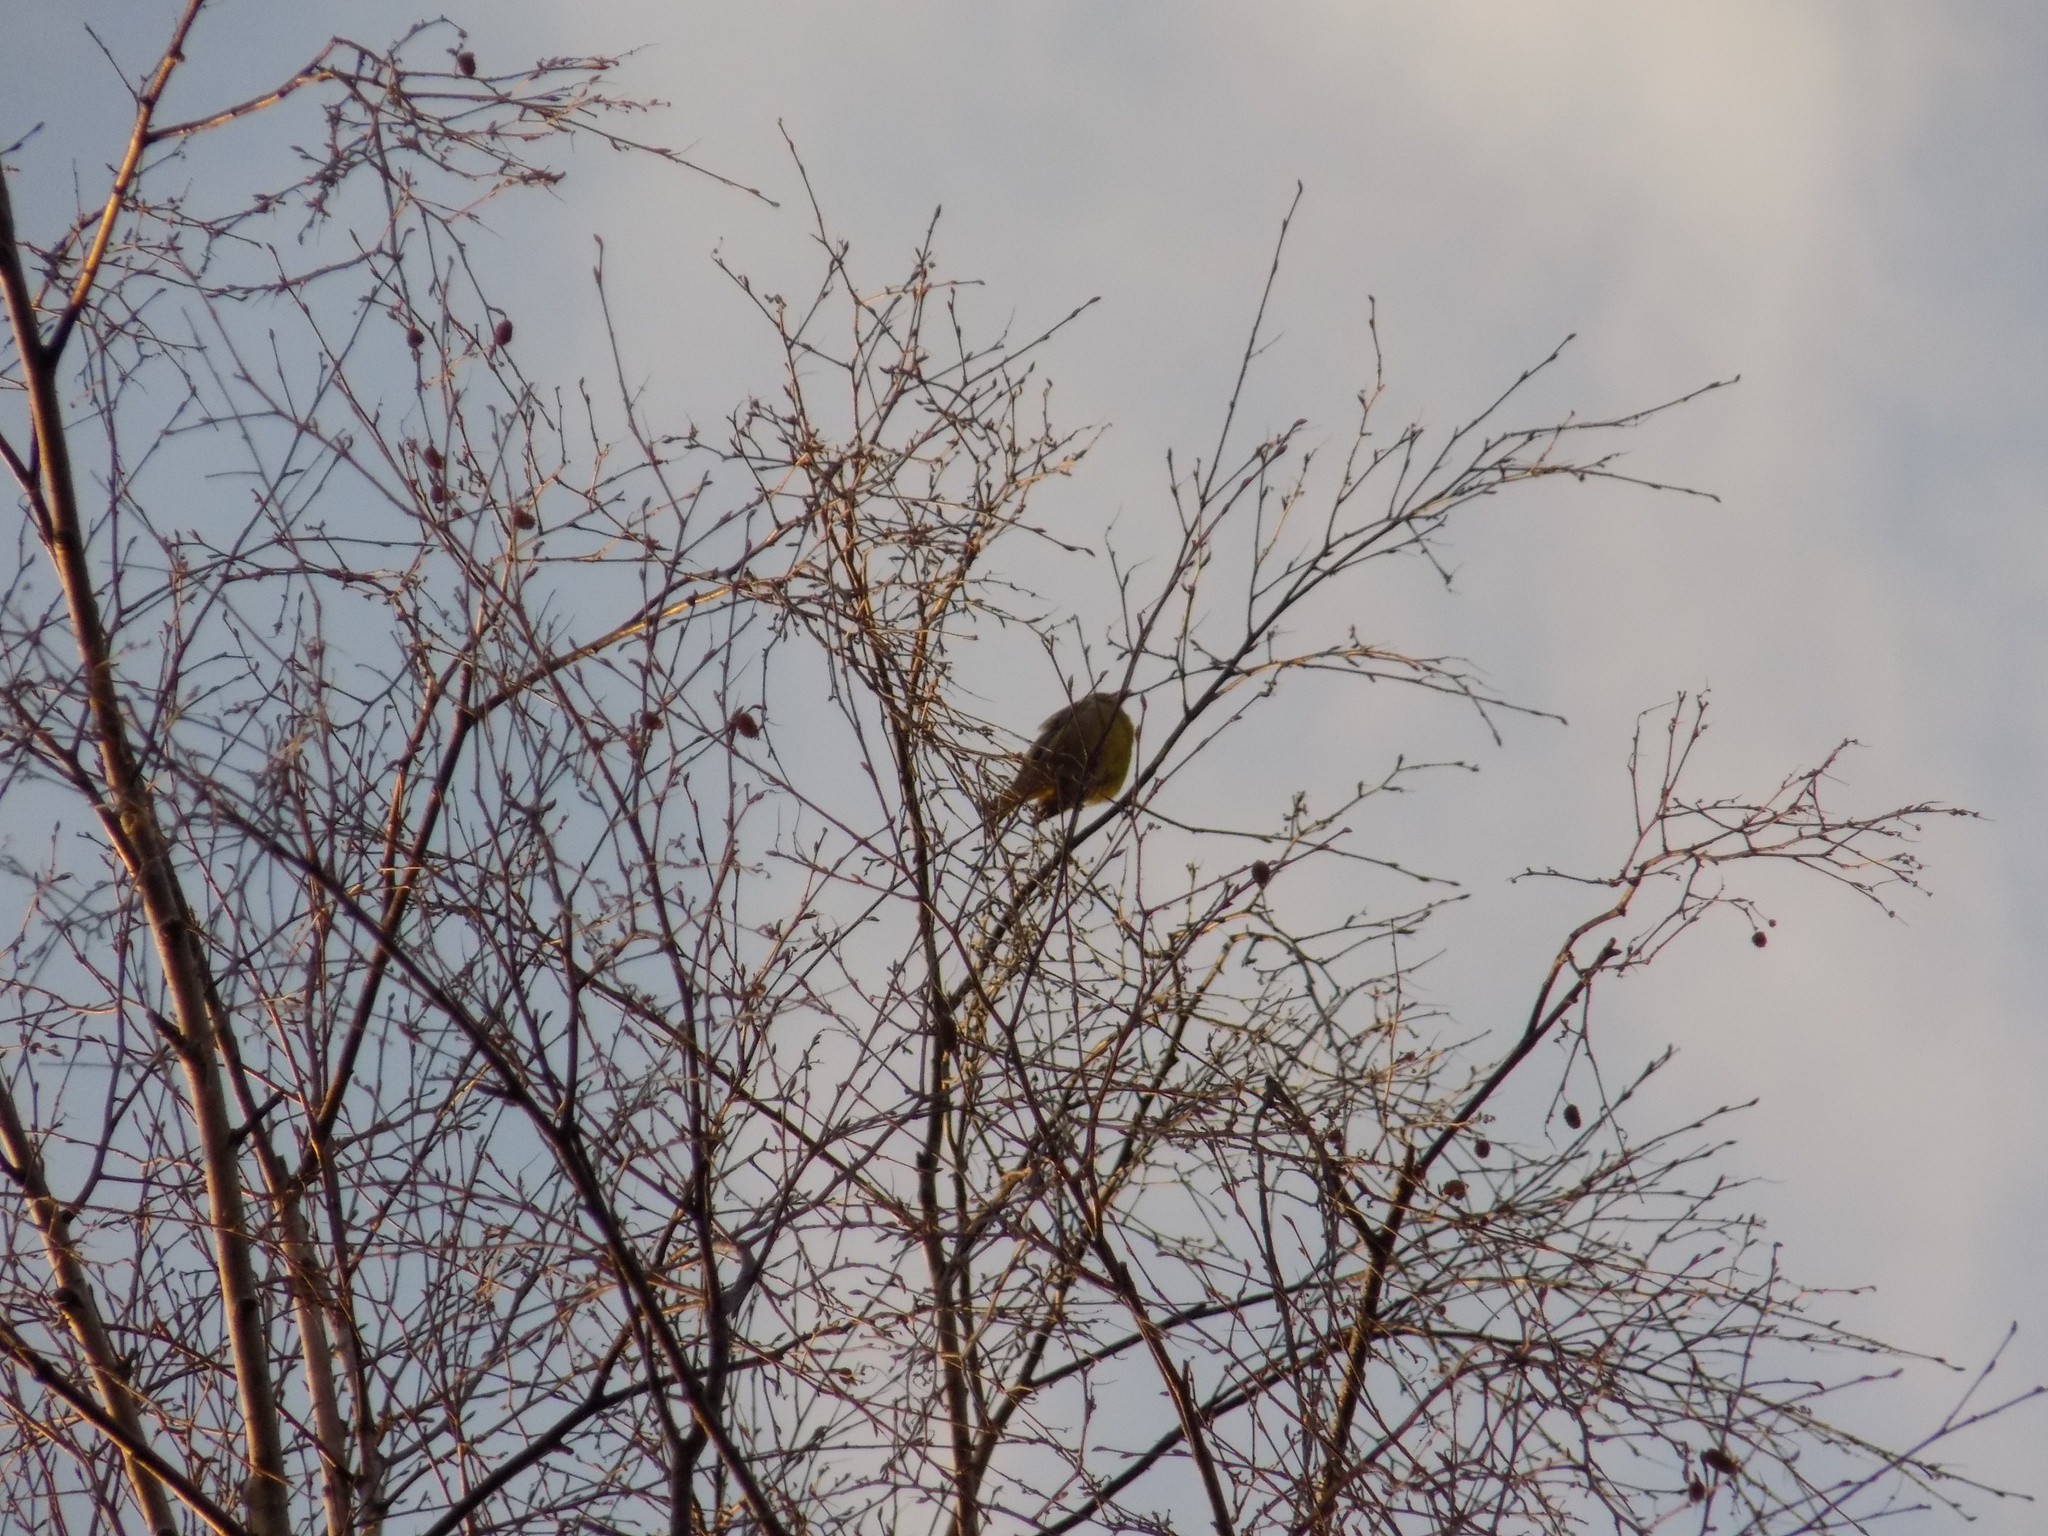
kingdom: Plantae
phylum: Tracheophyta
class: Liliopsida
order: Poales
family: Poaceae
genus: Chloris
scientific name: Chloris chloris
